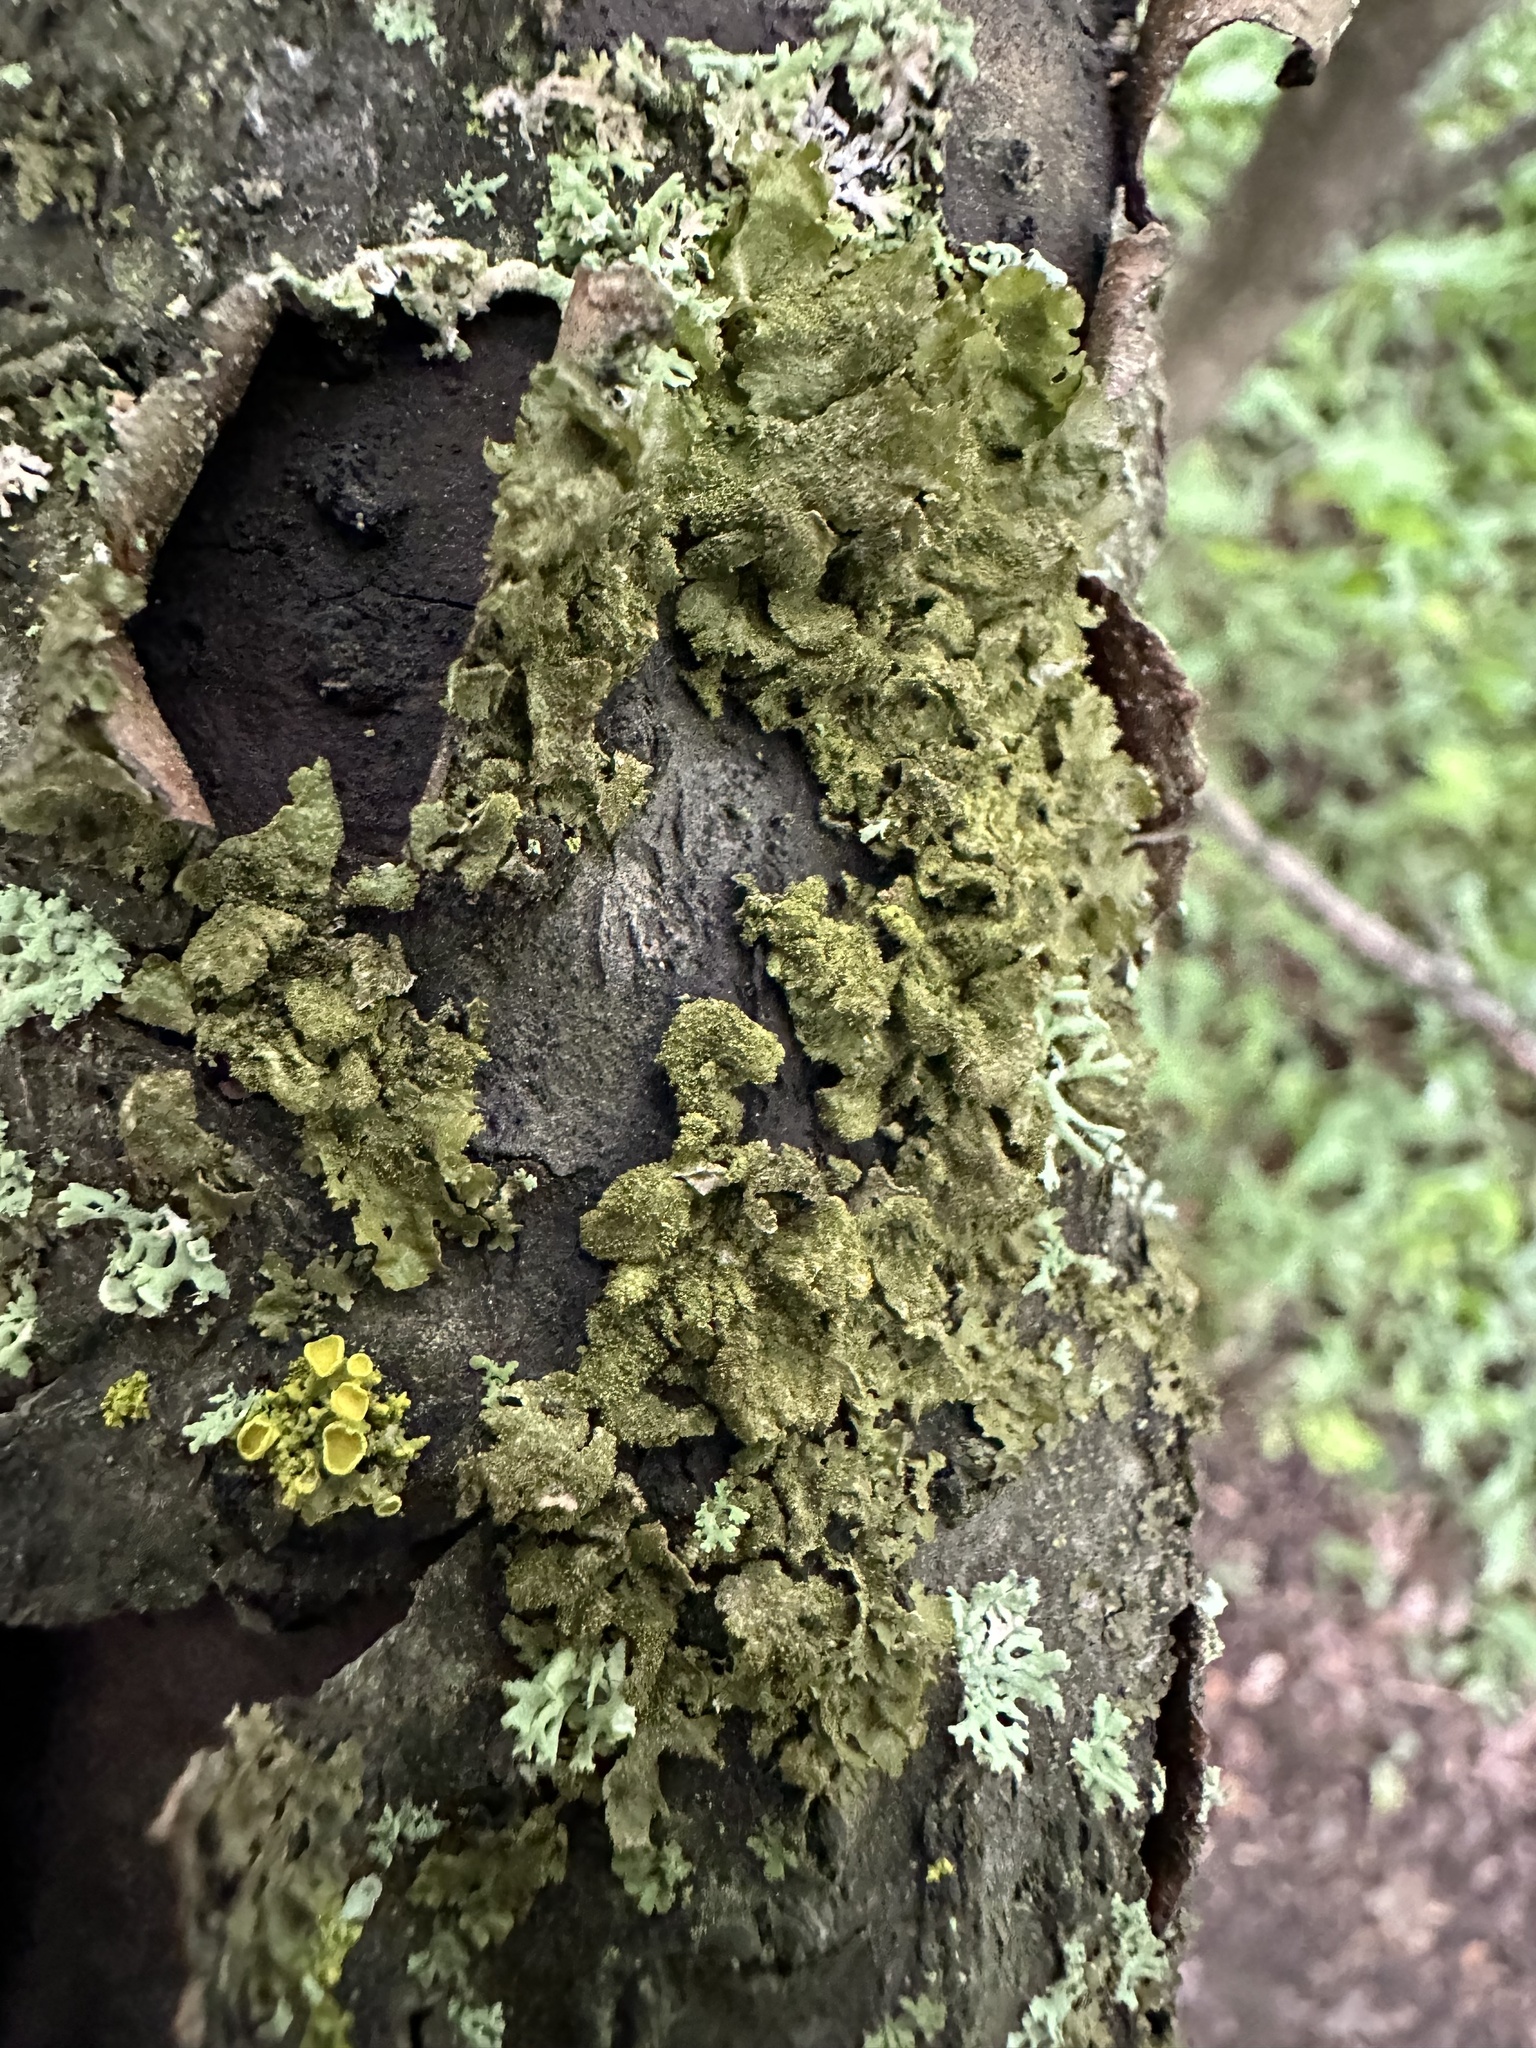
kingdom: Fungi
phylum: Ascomycota
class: Lecanoromycetes
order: Lecanorales
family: Parmeliaceae
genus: Melanohalea
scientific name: Melanohalea exasperatula
